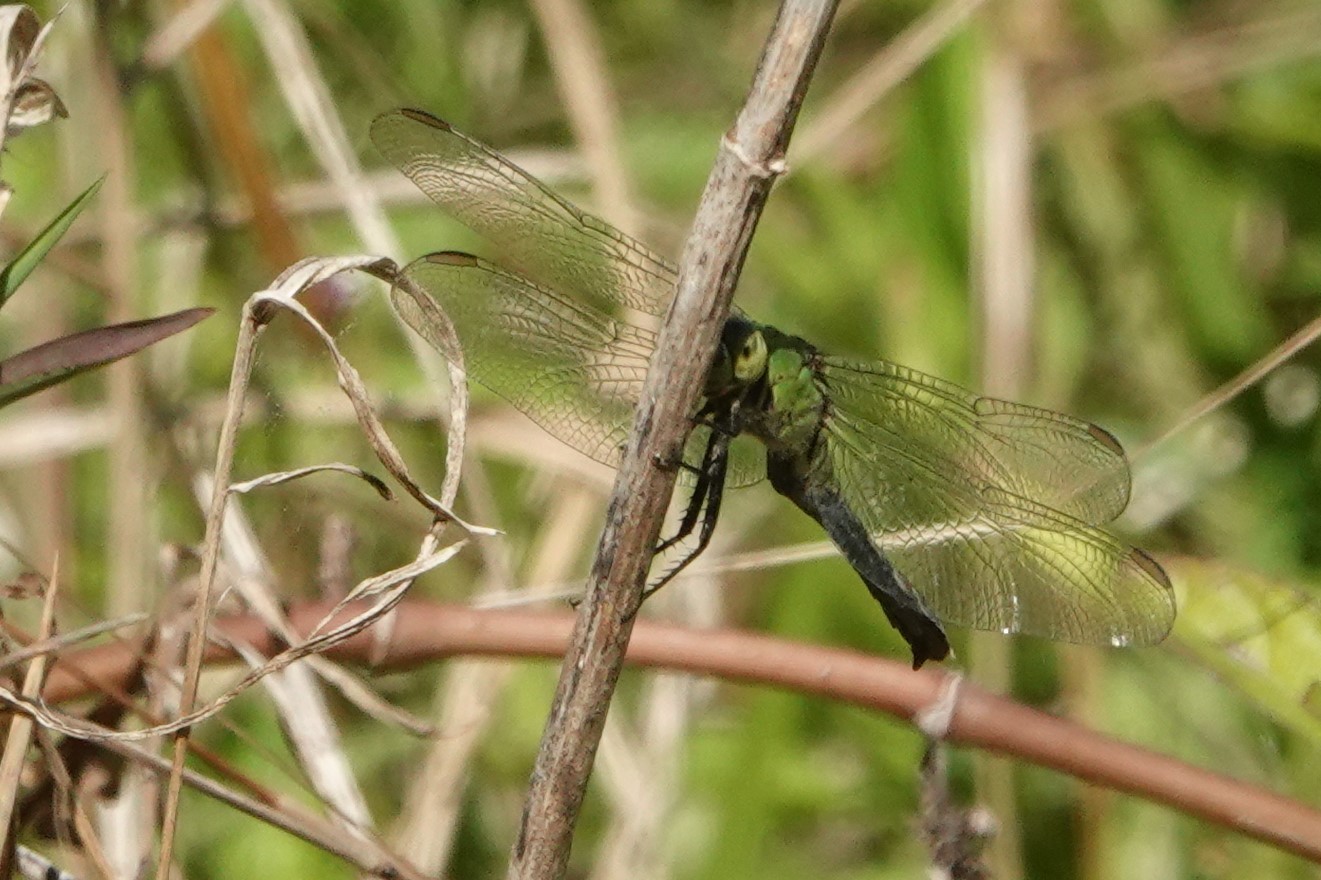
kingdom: Animalia
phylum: Arthropoda
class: Insecta
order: Odonata
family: Libellulidae
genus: Erythemis
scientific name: Erythemis simplicicollis
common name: Eastern pondhawk
